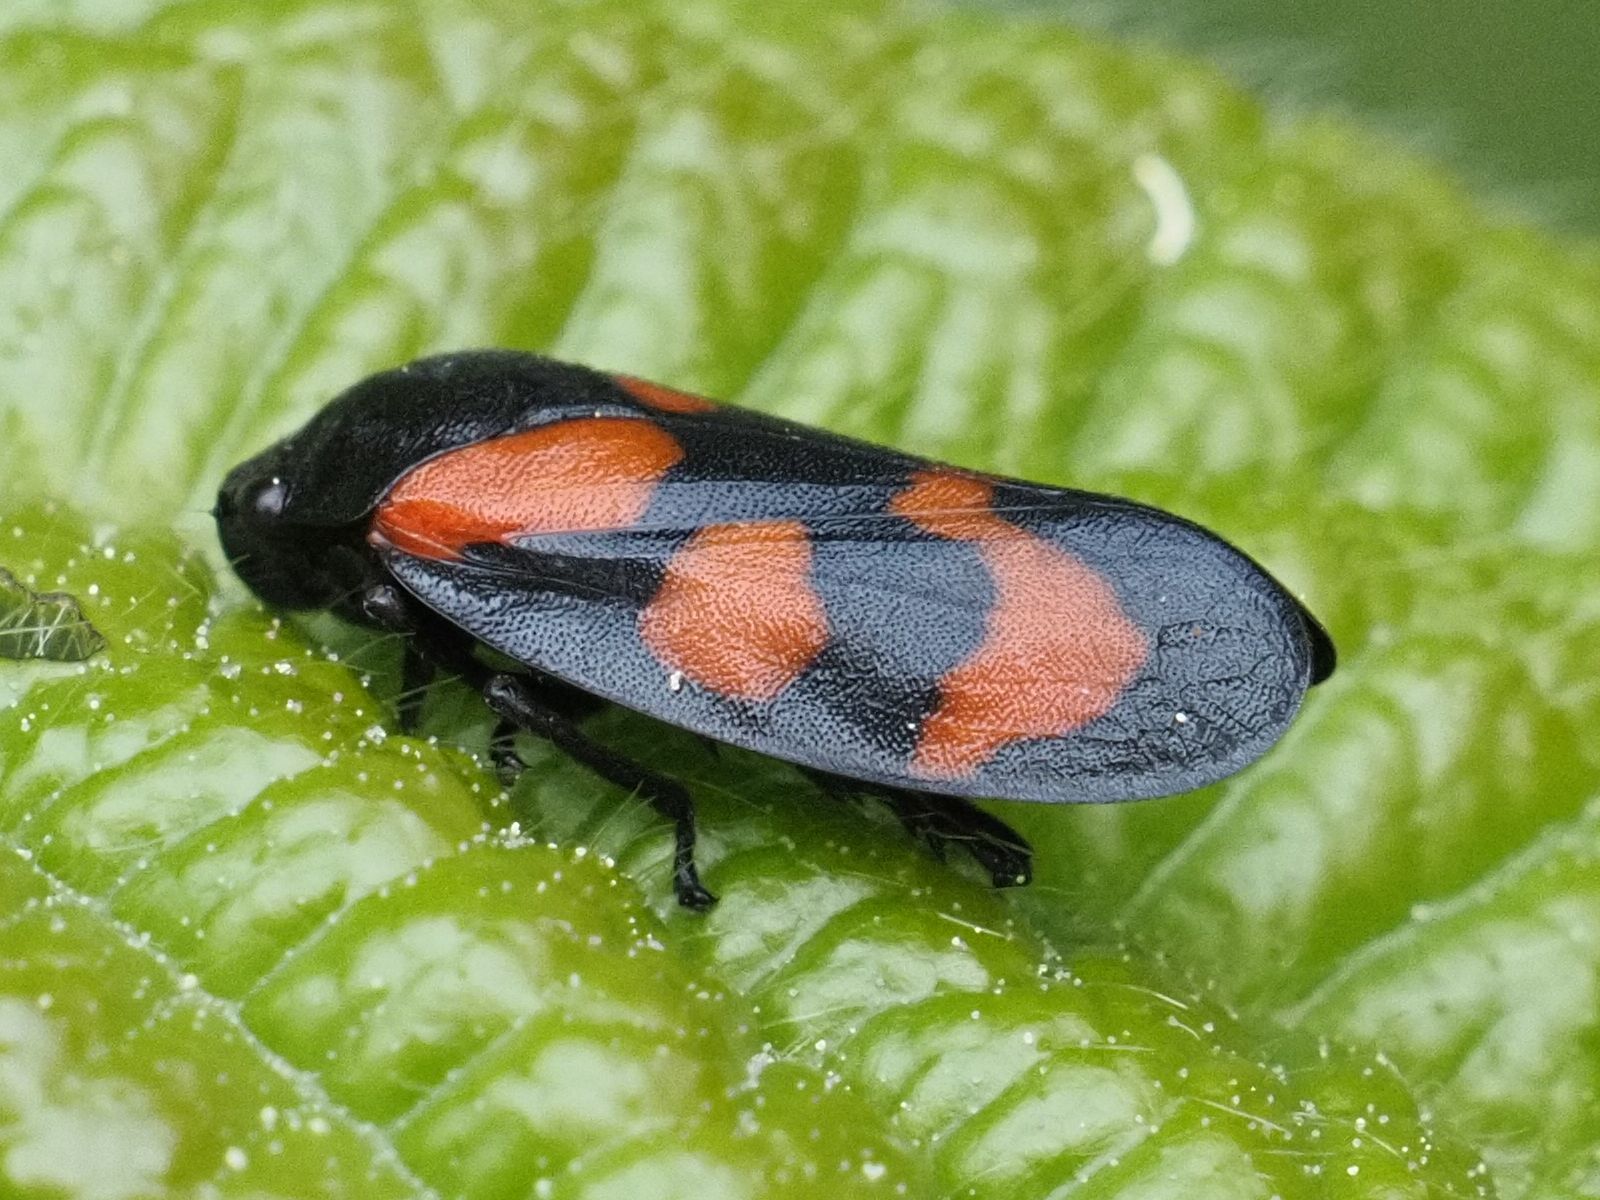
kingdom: Animalia
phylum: Arthropoda
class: Insecta
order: Hemiptera
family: Cercopidae
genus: Cercopis
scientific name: Cercopis vulnerata
